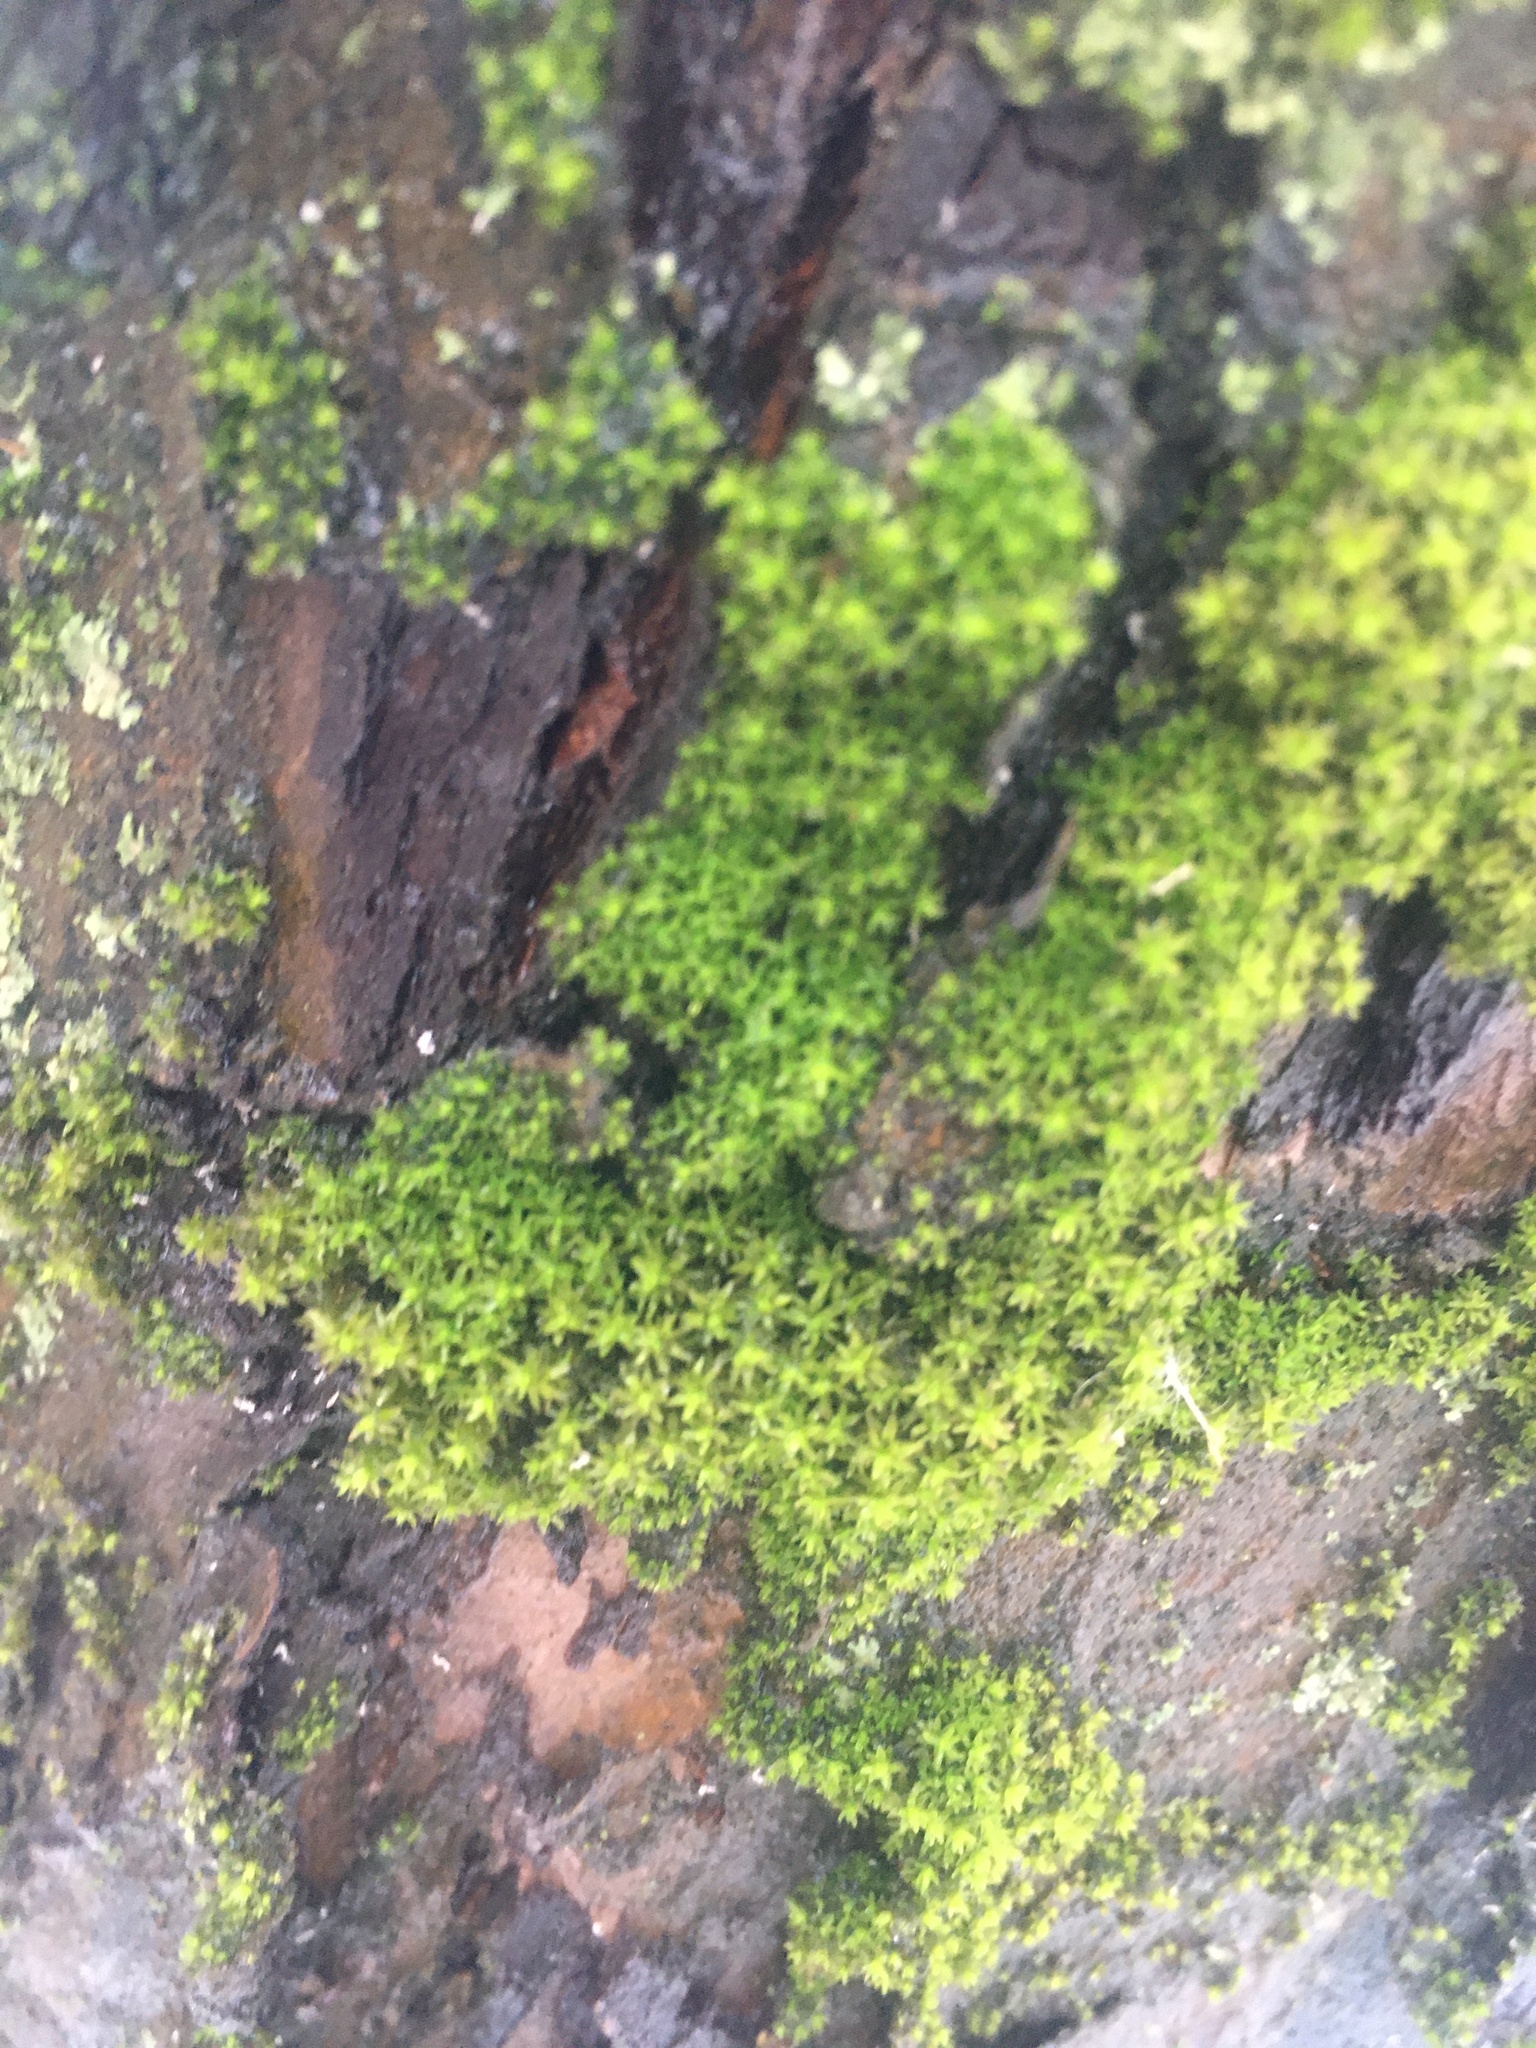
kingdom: Plantae
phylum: Bryophyta
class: Bryopsida
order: Orthotrichales
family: Orthotrichaceae
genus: Nyholmiella
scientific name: Nyholmiella obtusifolia
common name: Blunt-leaved bristle-moss
